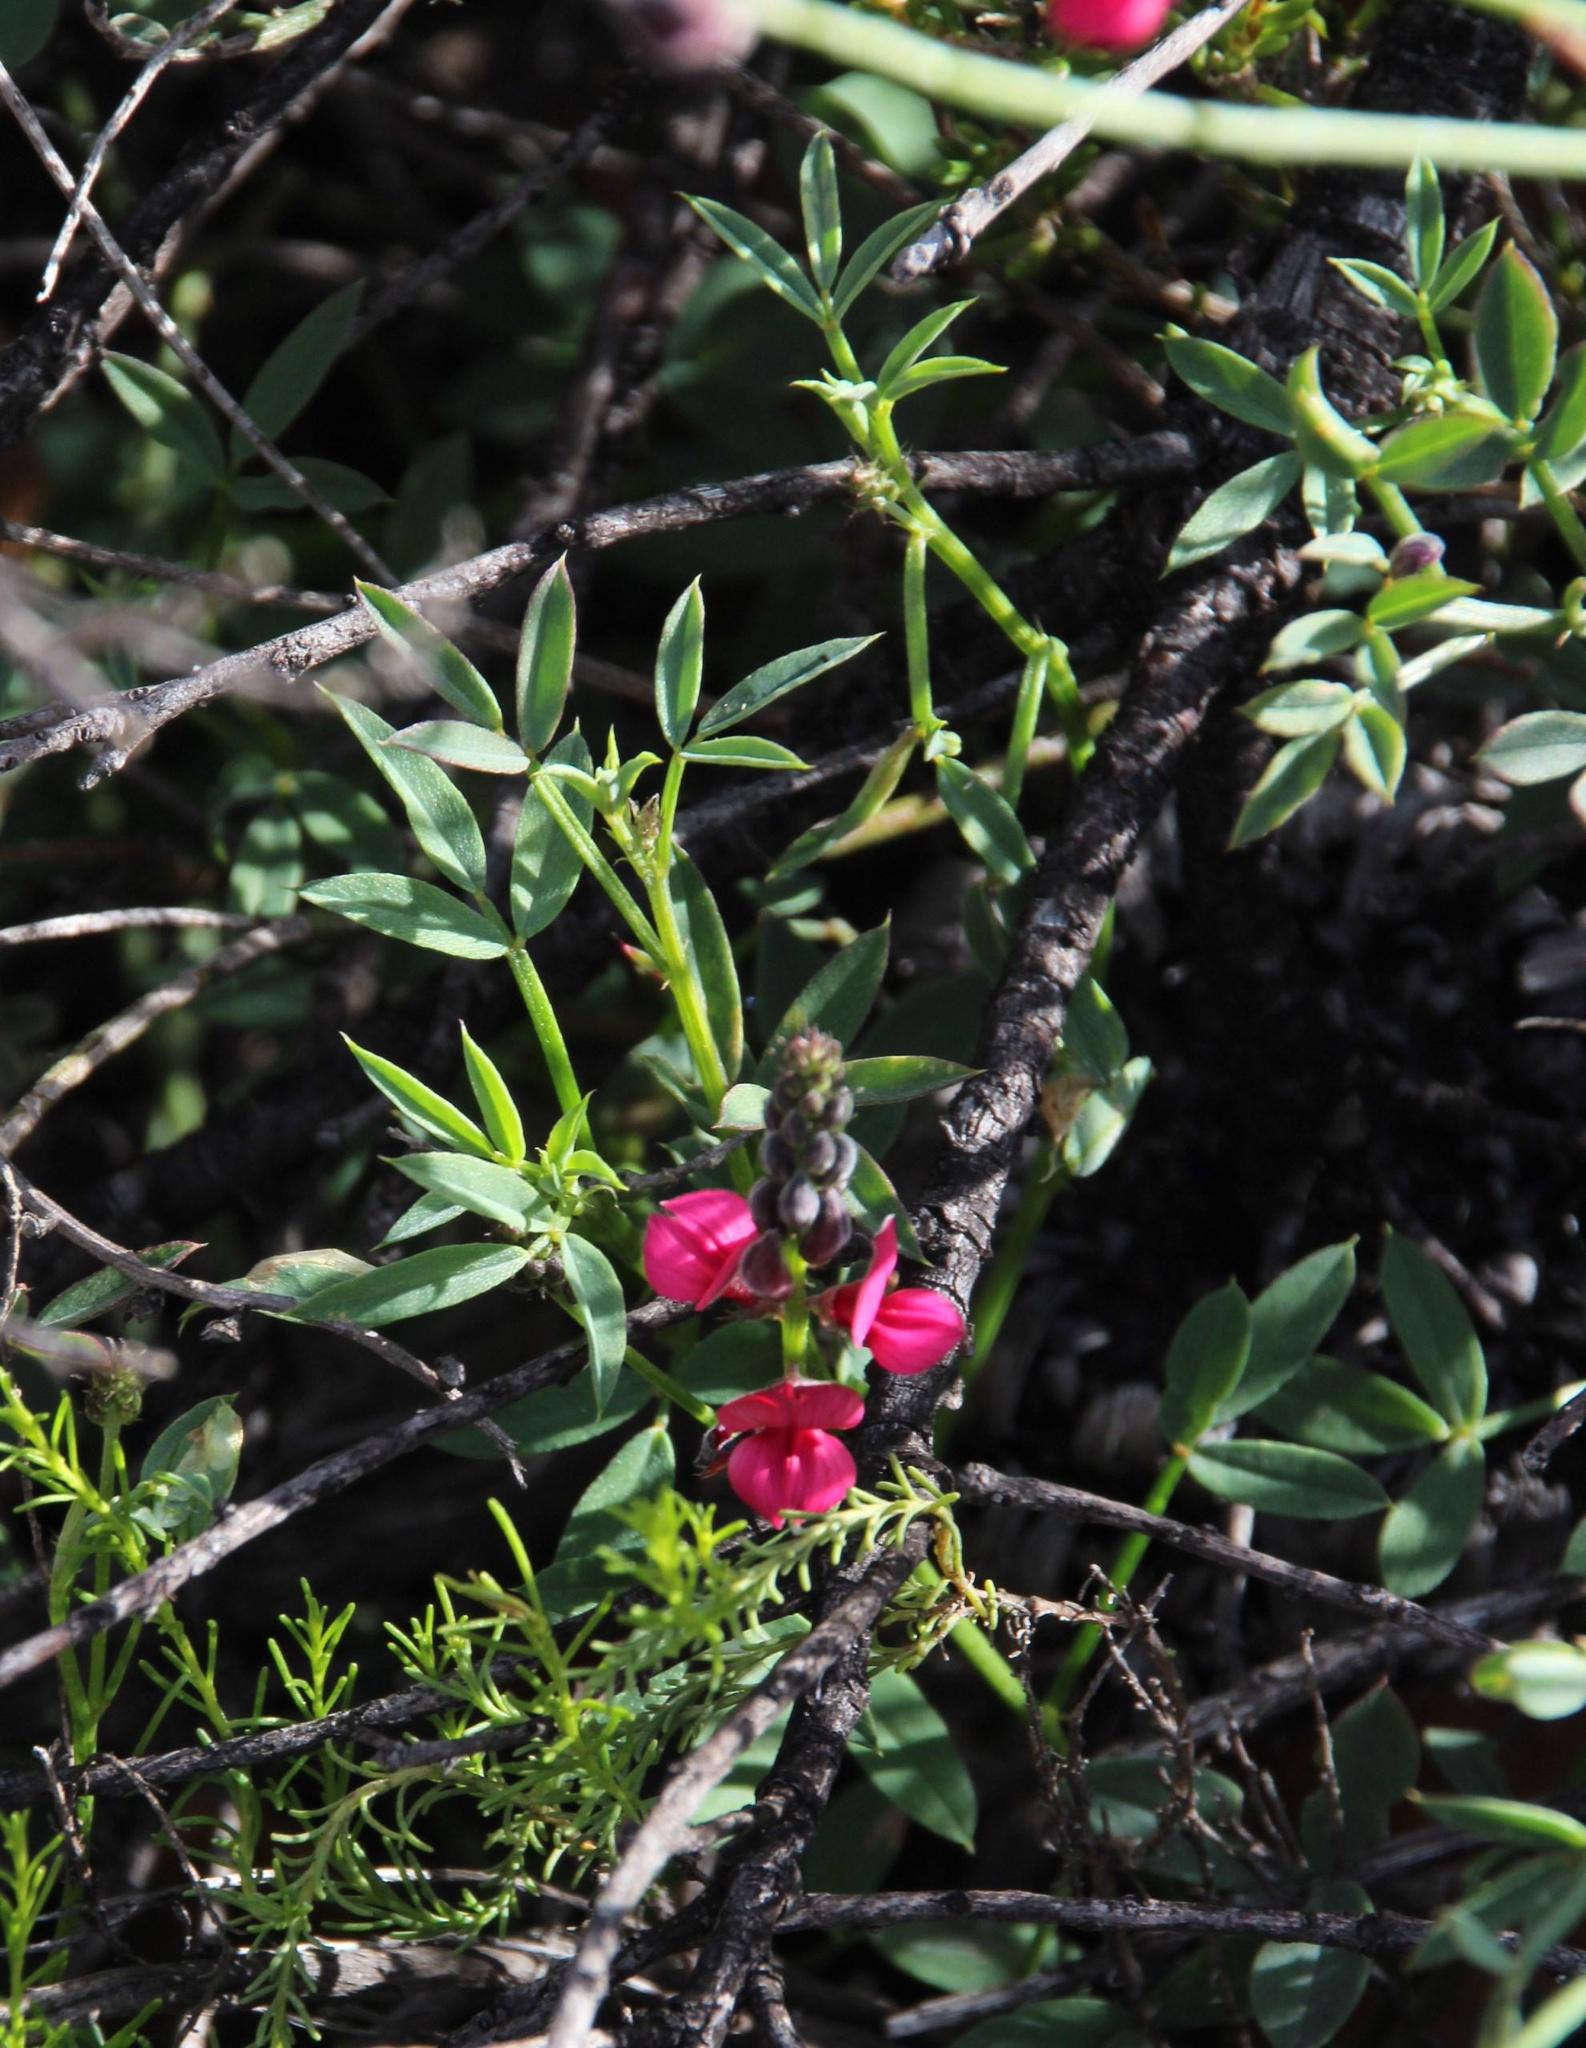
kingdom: Plantae
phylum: Tracheophyta
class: Magnoliopsida
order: Fabales
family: Fabaceae
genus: Indigofera
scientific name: Indigofera heterophylla
